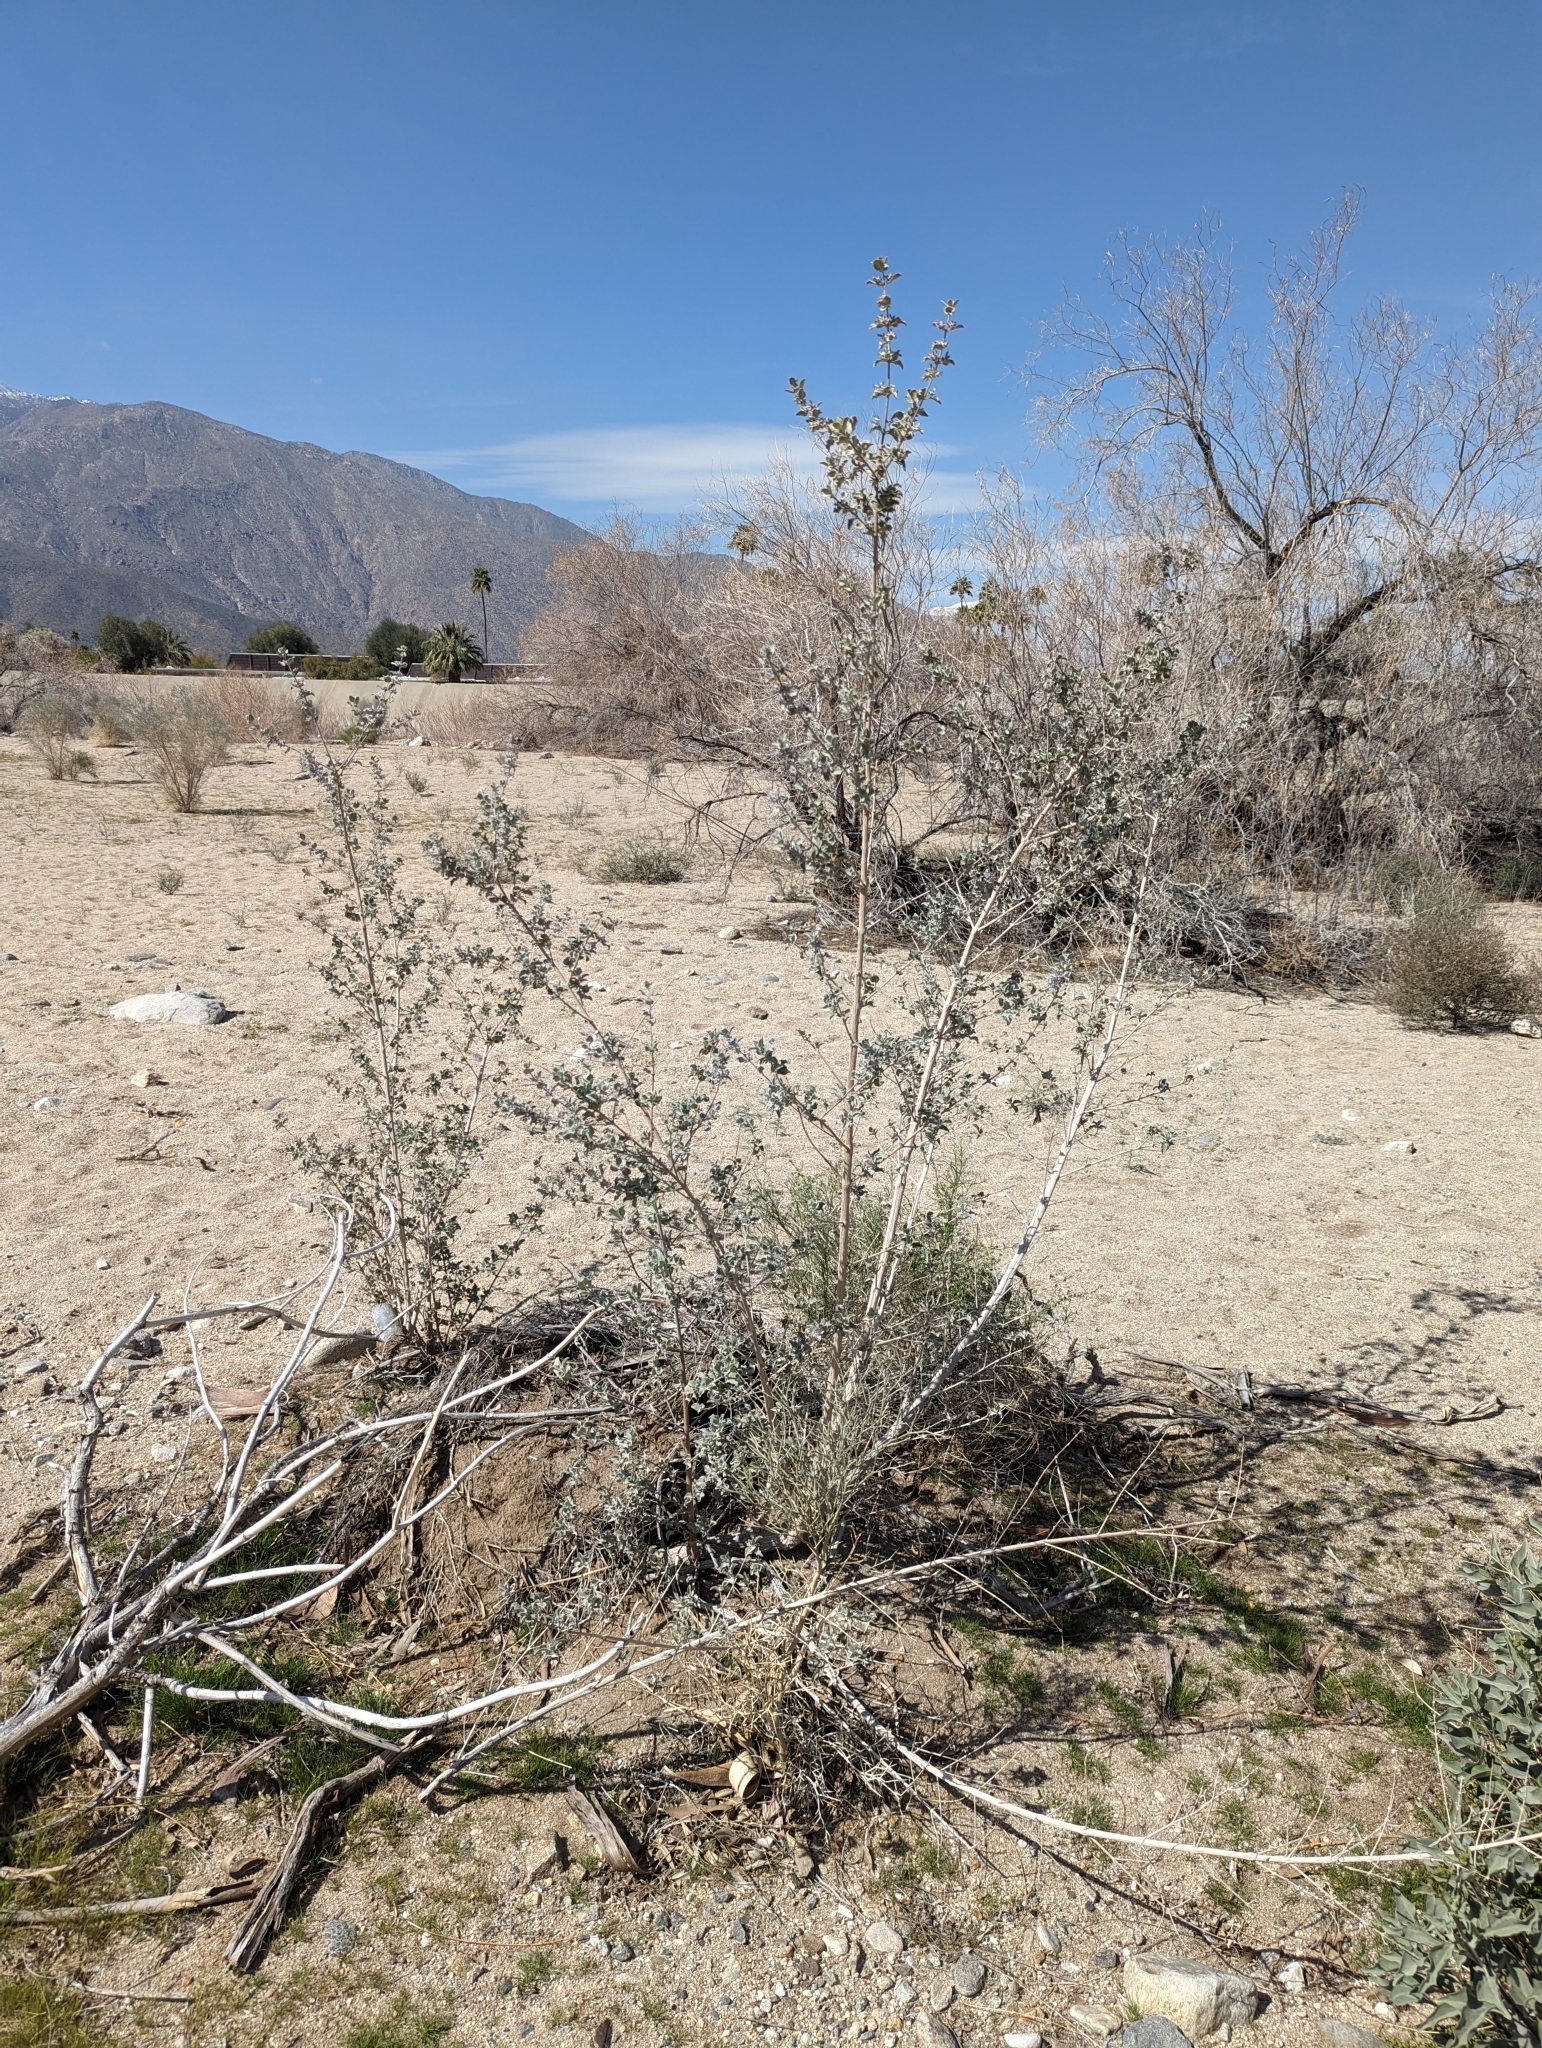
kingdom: Plantae
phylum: Tracheophyta
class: Magnoliopsida
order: Lamiales
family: Lamiaceae
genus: Condea
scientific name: Condea emoryi
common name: Chia
